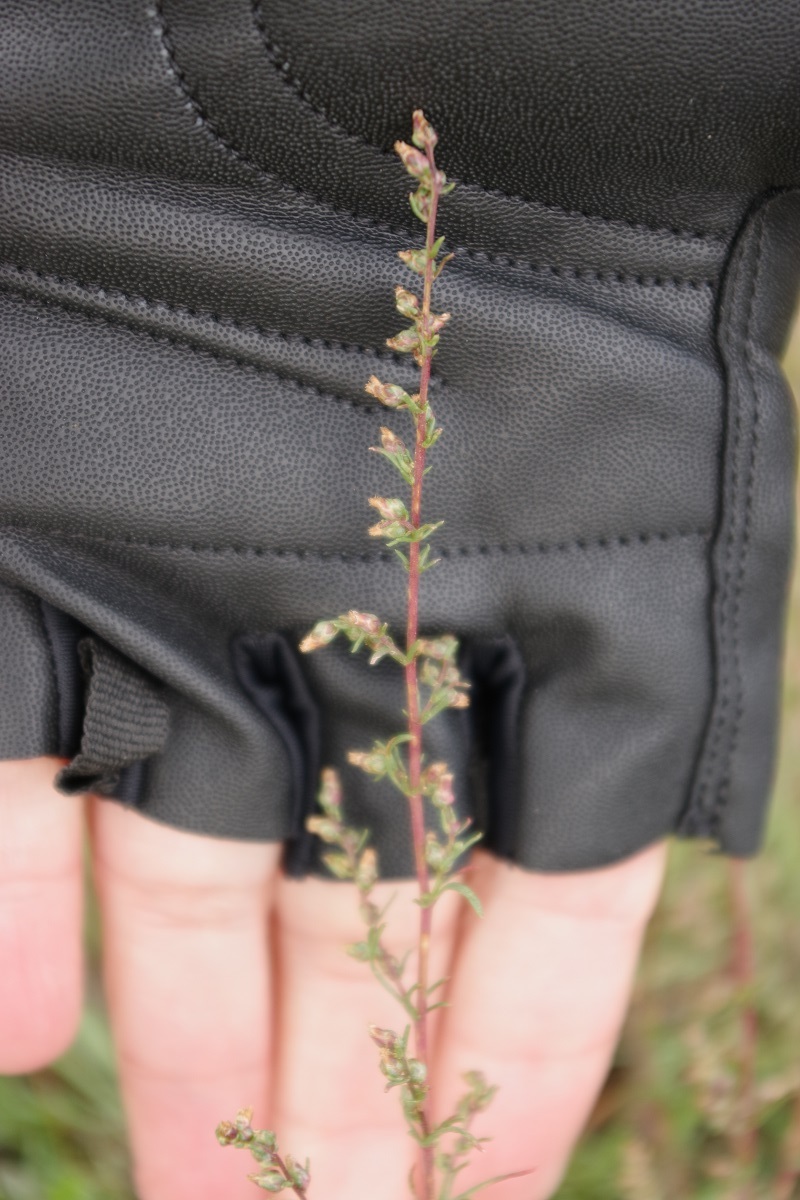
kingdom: Plantae
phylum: Tracheophyta
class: Magnoliopsida
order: Asterales
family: Asteraceae
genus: Artemisia
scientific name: Artemisia campestris
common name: Field wormwood
